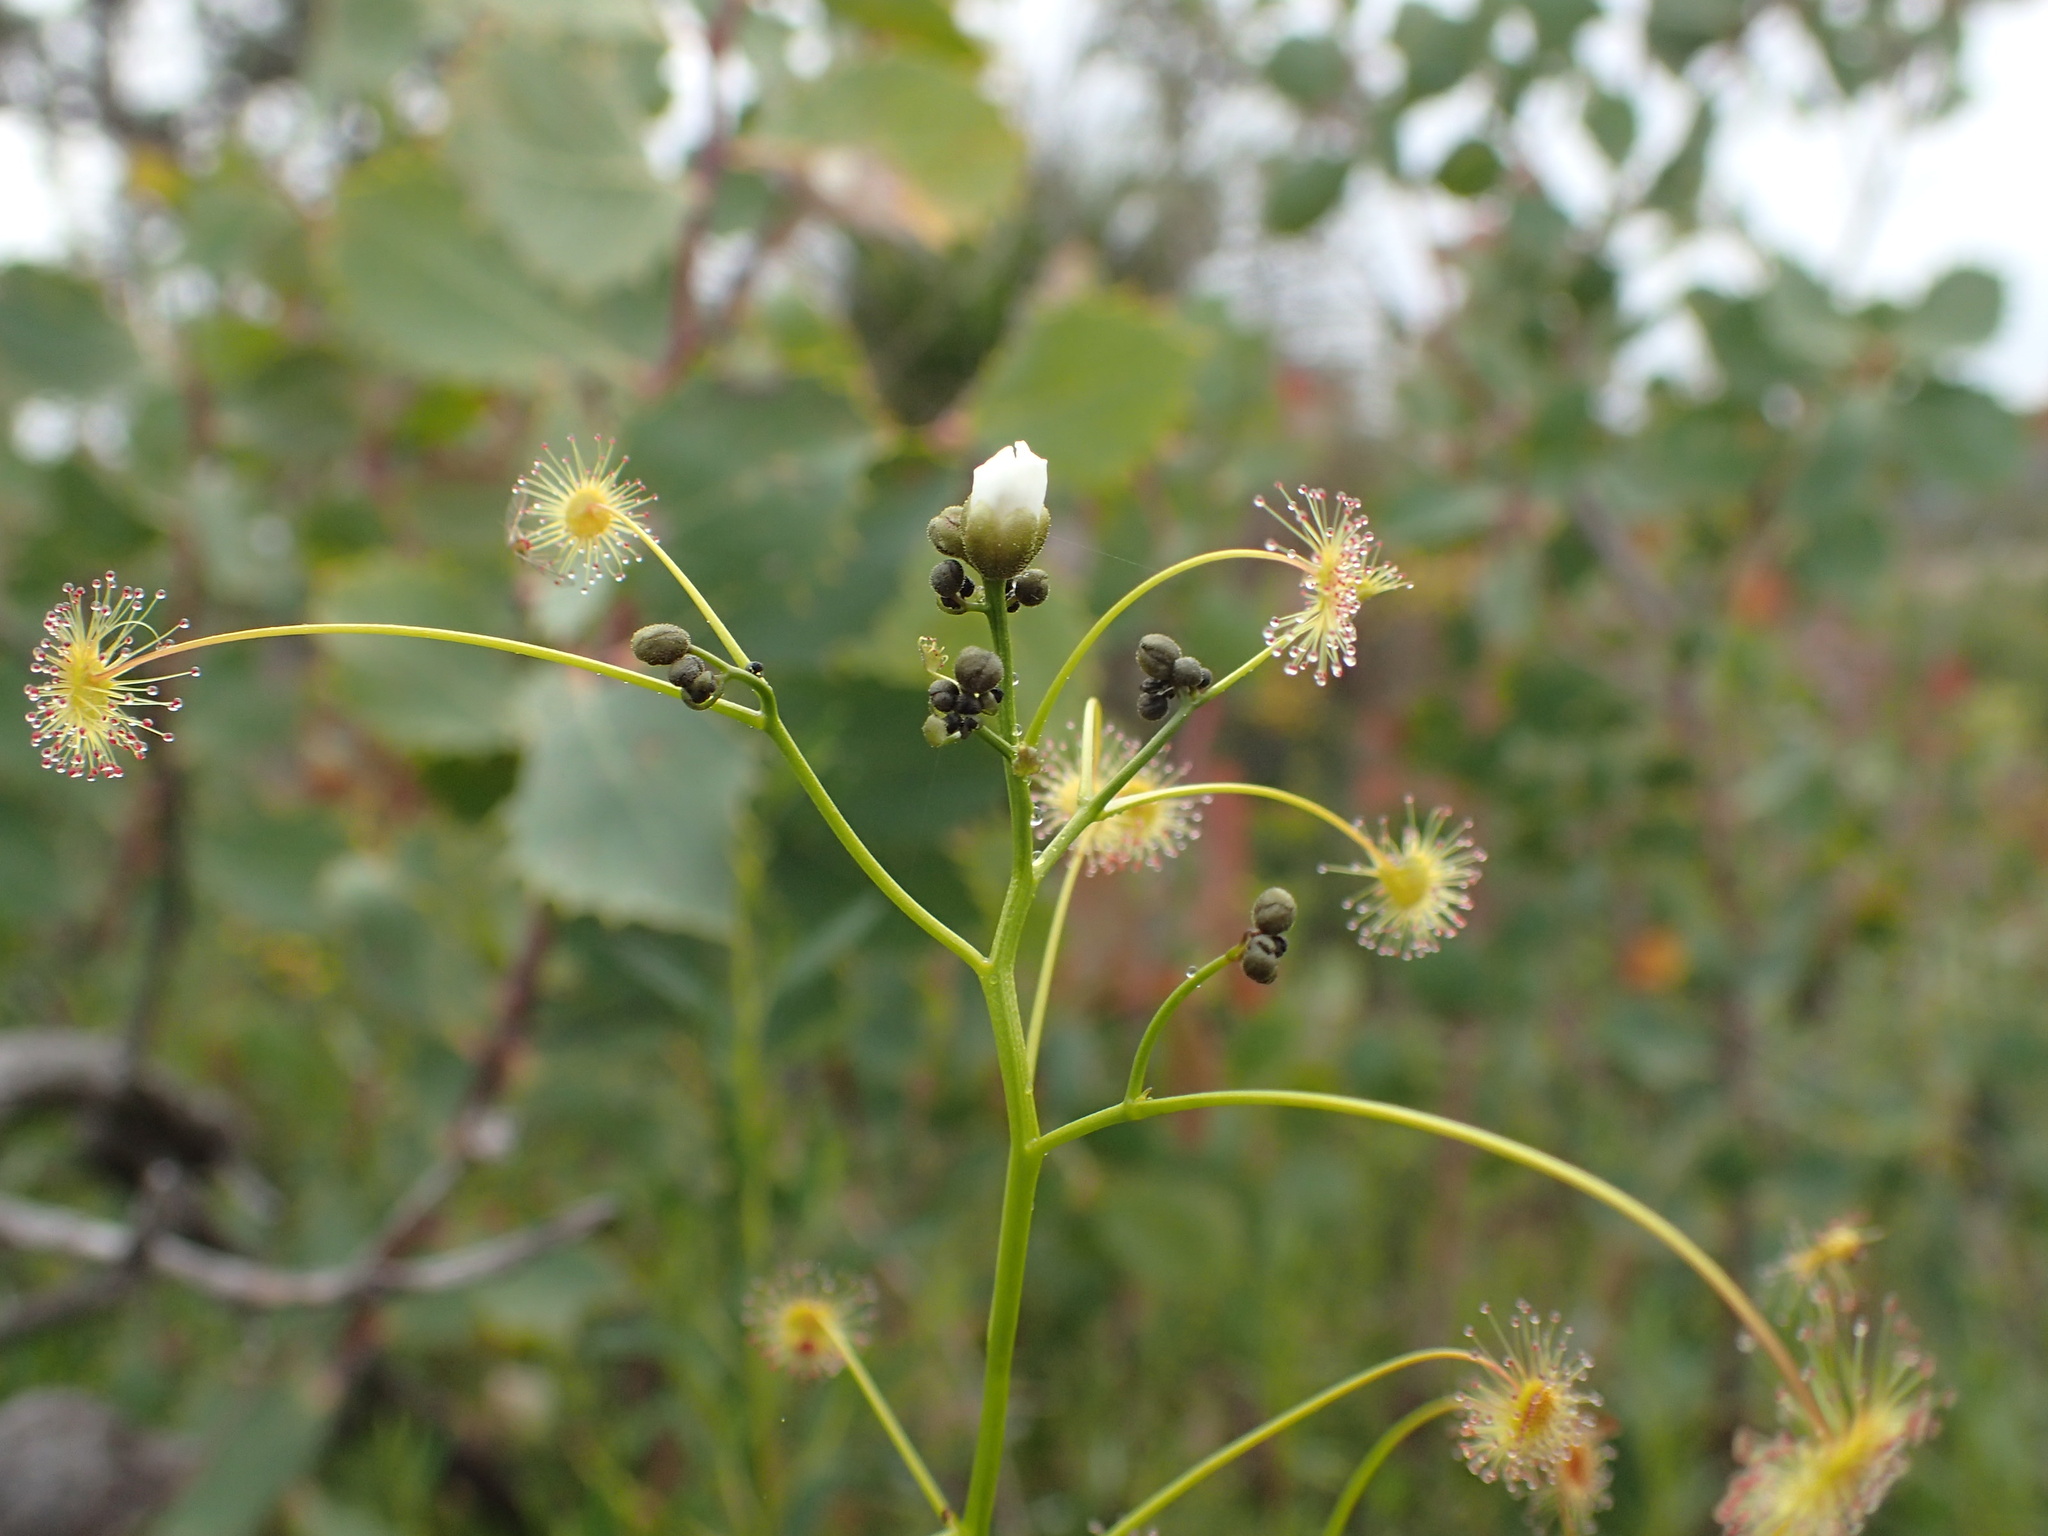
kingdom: Plantae
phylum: Tracheophyta
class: Magnoliopsida
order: Caryophyllales
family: Droseraceae
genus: Drosera
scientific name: Drosera pallida
